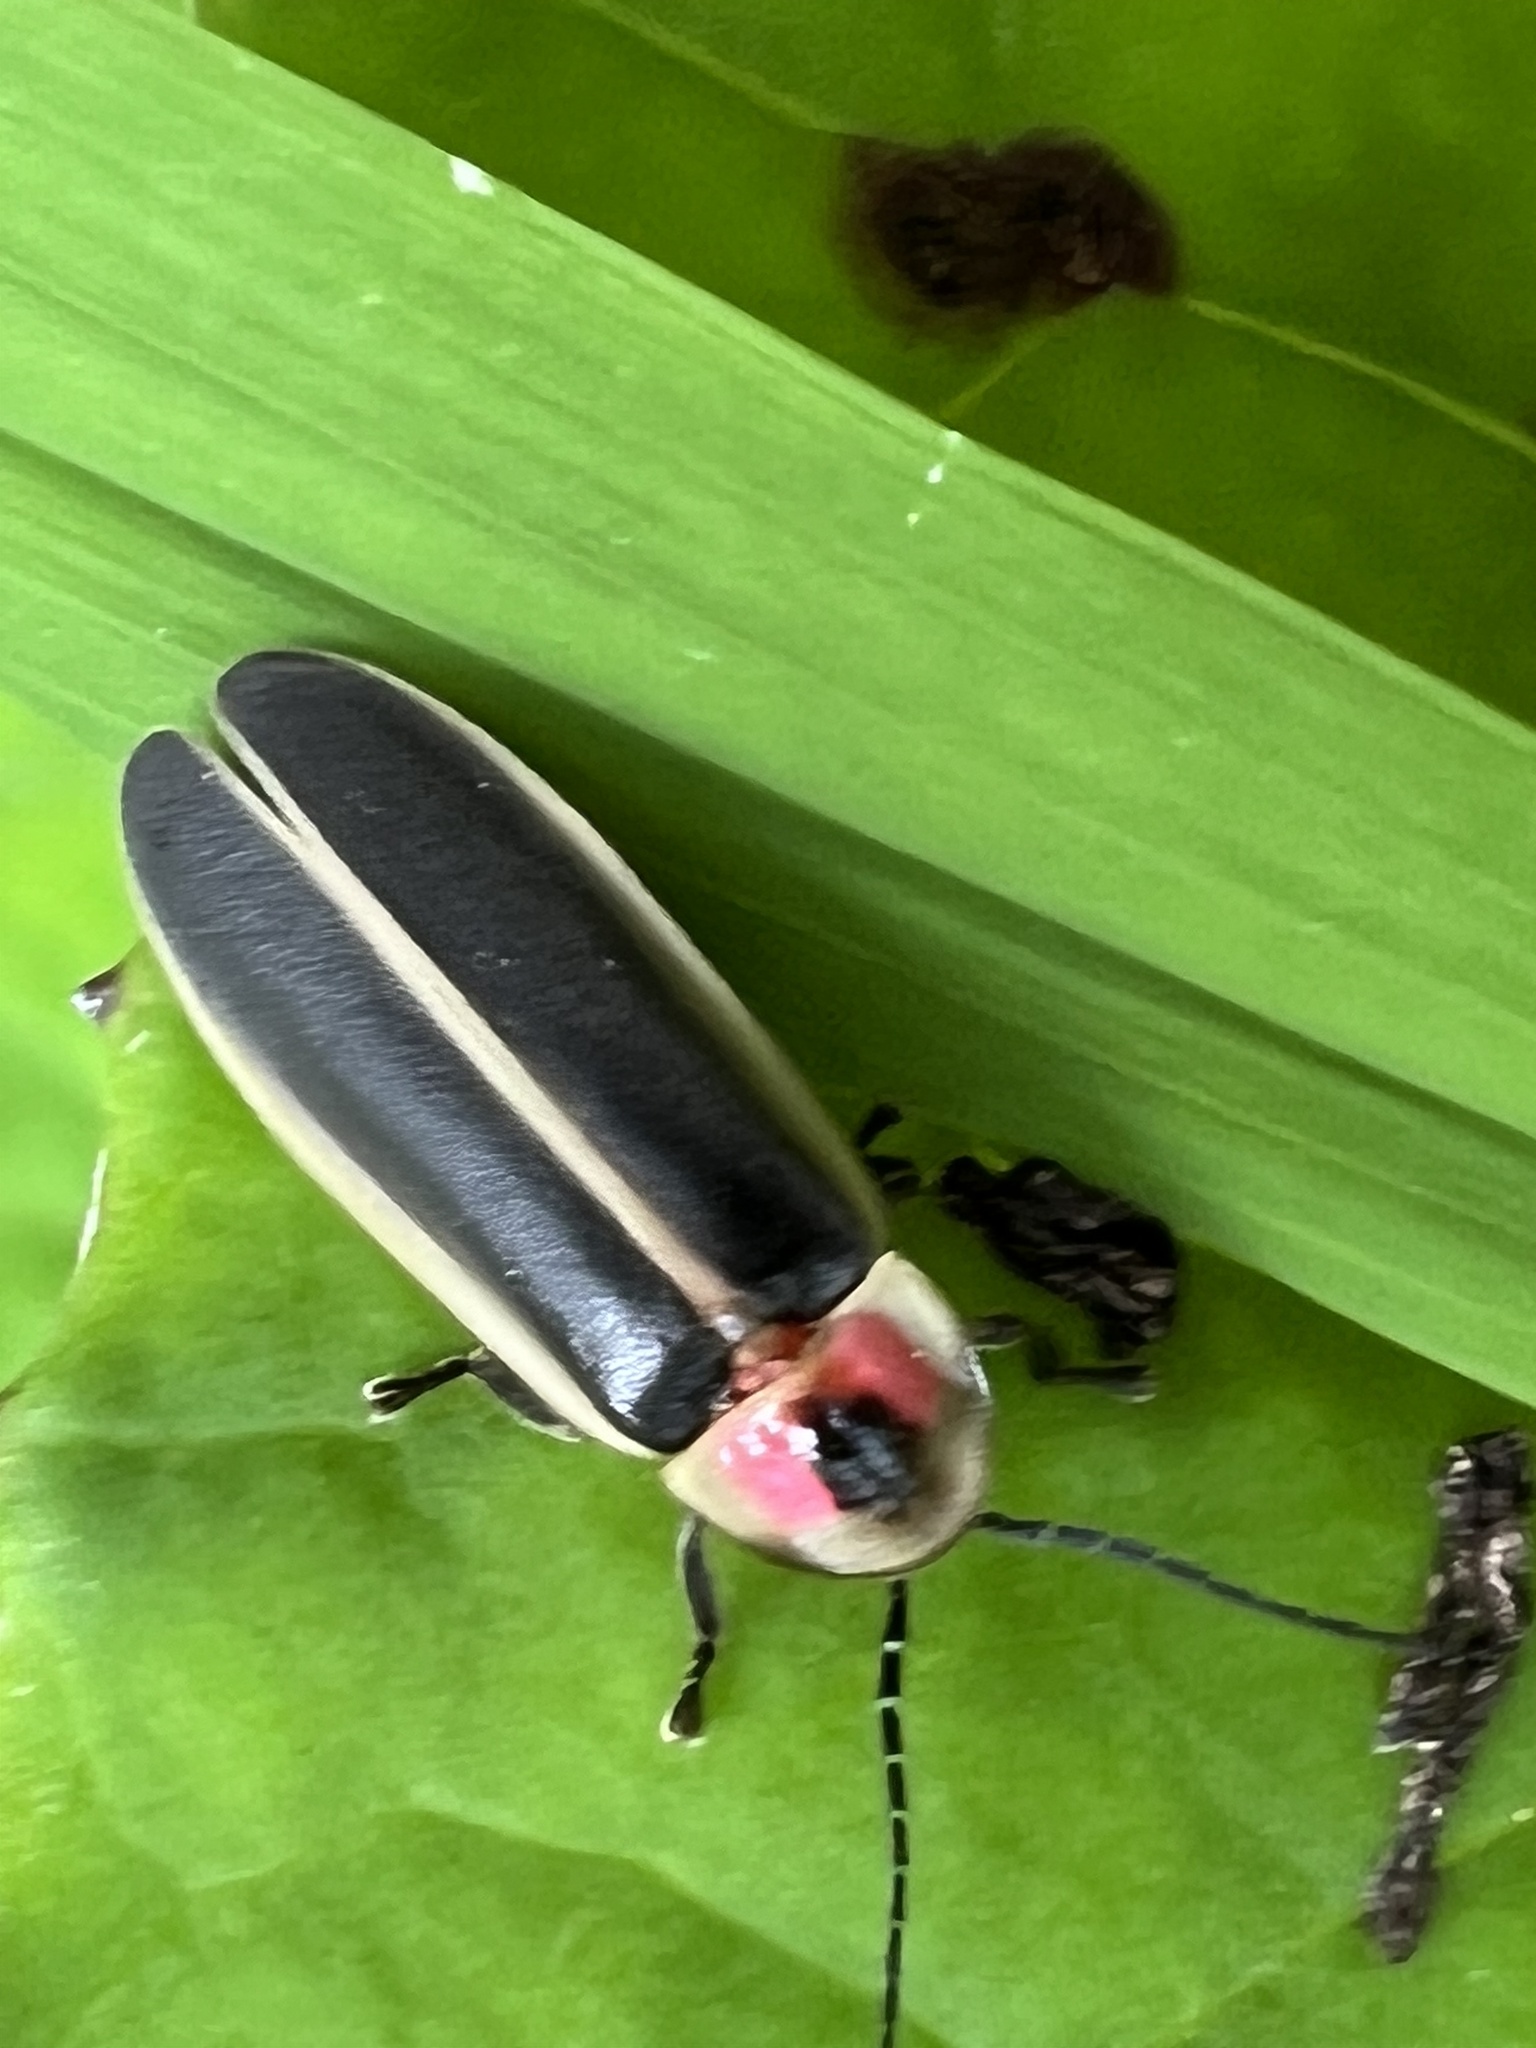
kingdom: Animalia
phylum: Arthropoda
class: Insecta
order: Coleoptera
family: Lampyridae
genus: Photinus
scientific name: Photinus pyralis
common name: Big dipper firefly
